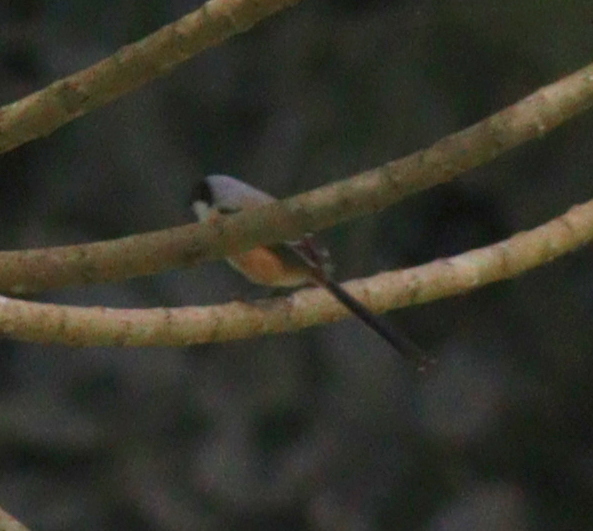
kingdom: Animalia
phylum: Chordata
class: Aves
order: Passeriformes
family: Laniidae
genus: Lanius
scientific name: Lanius schach
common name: Long-tailed shrike
